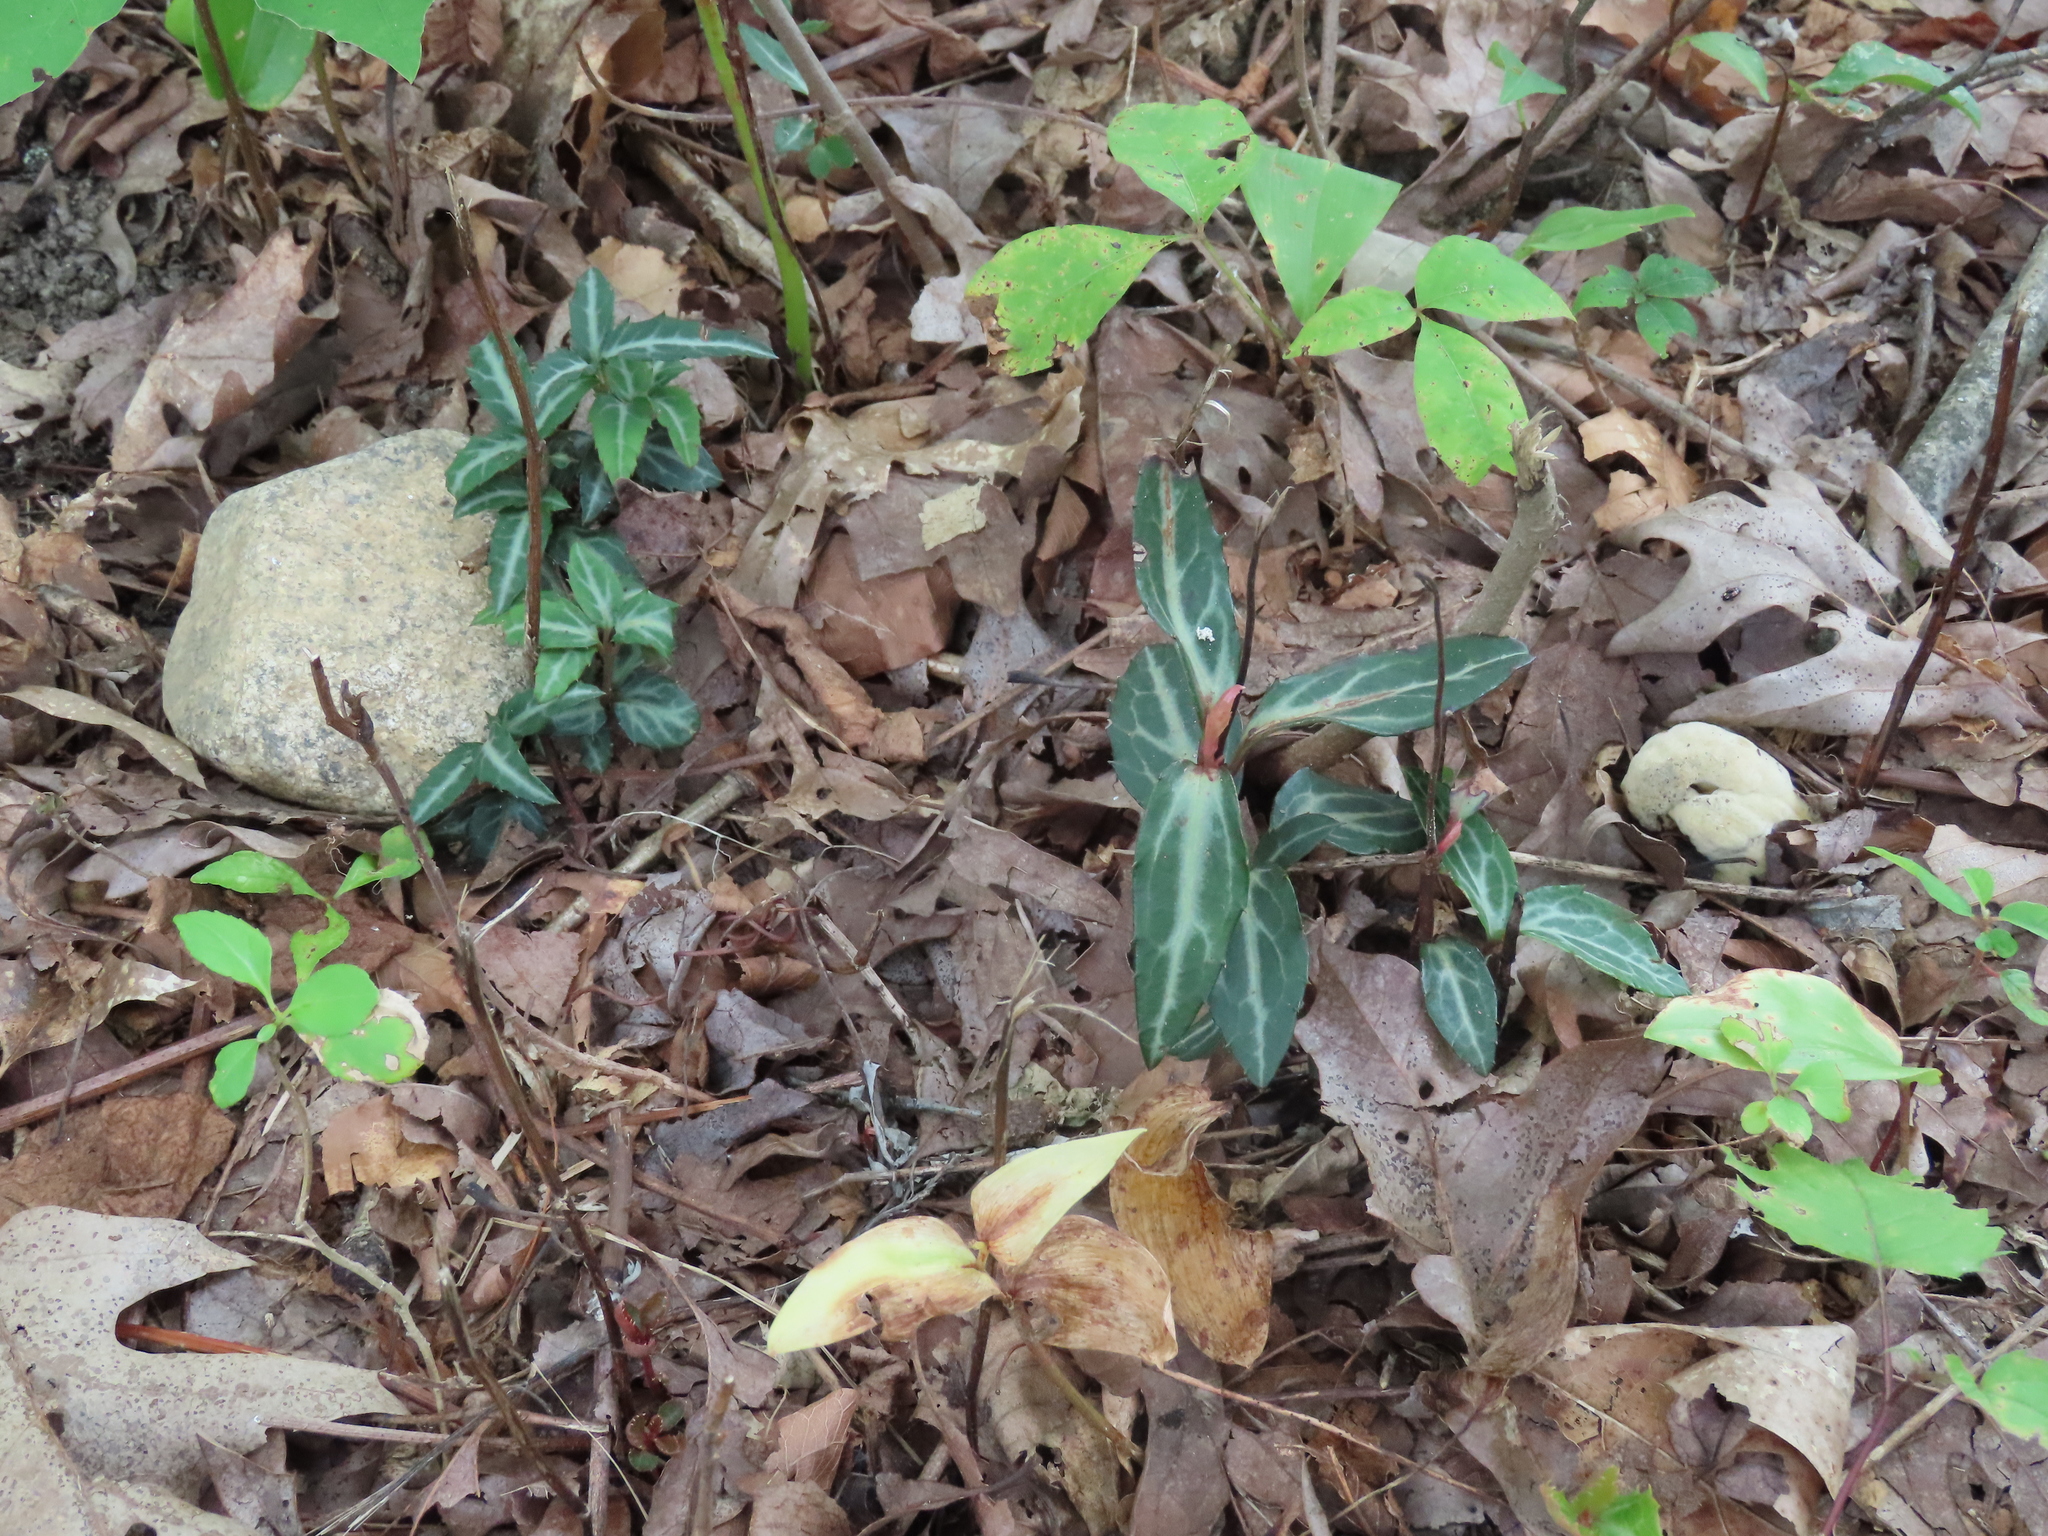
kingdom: Plantae
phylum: Tracheophyta
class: Magnoliopsida
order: Ericales
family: Ericaceae
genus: Chimaphila
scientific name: Chimaphila maculata
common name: Spotted pipsissewa
